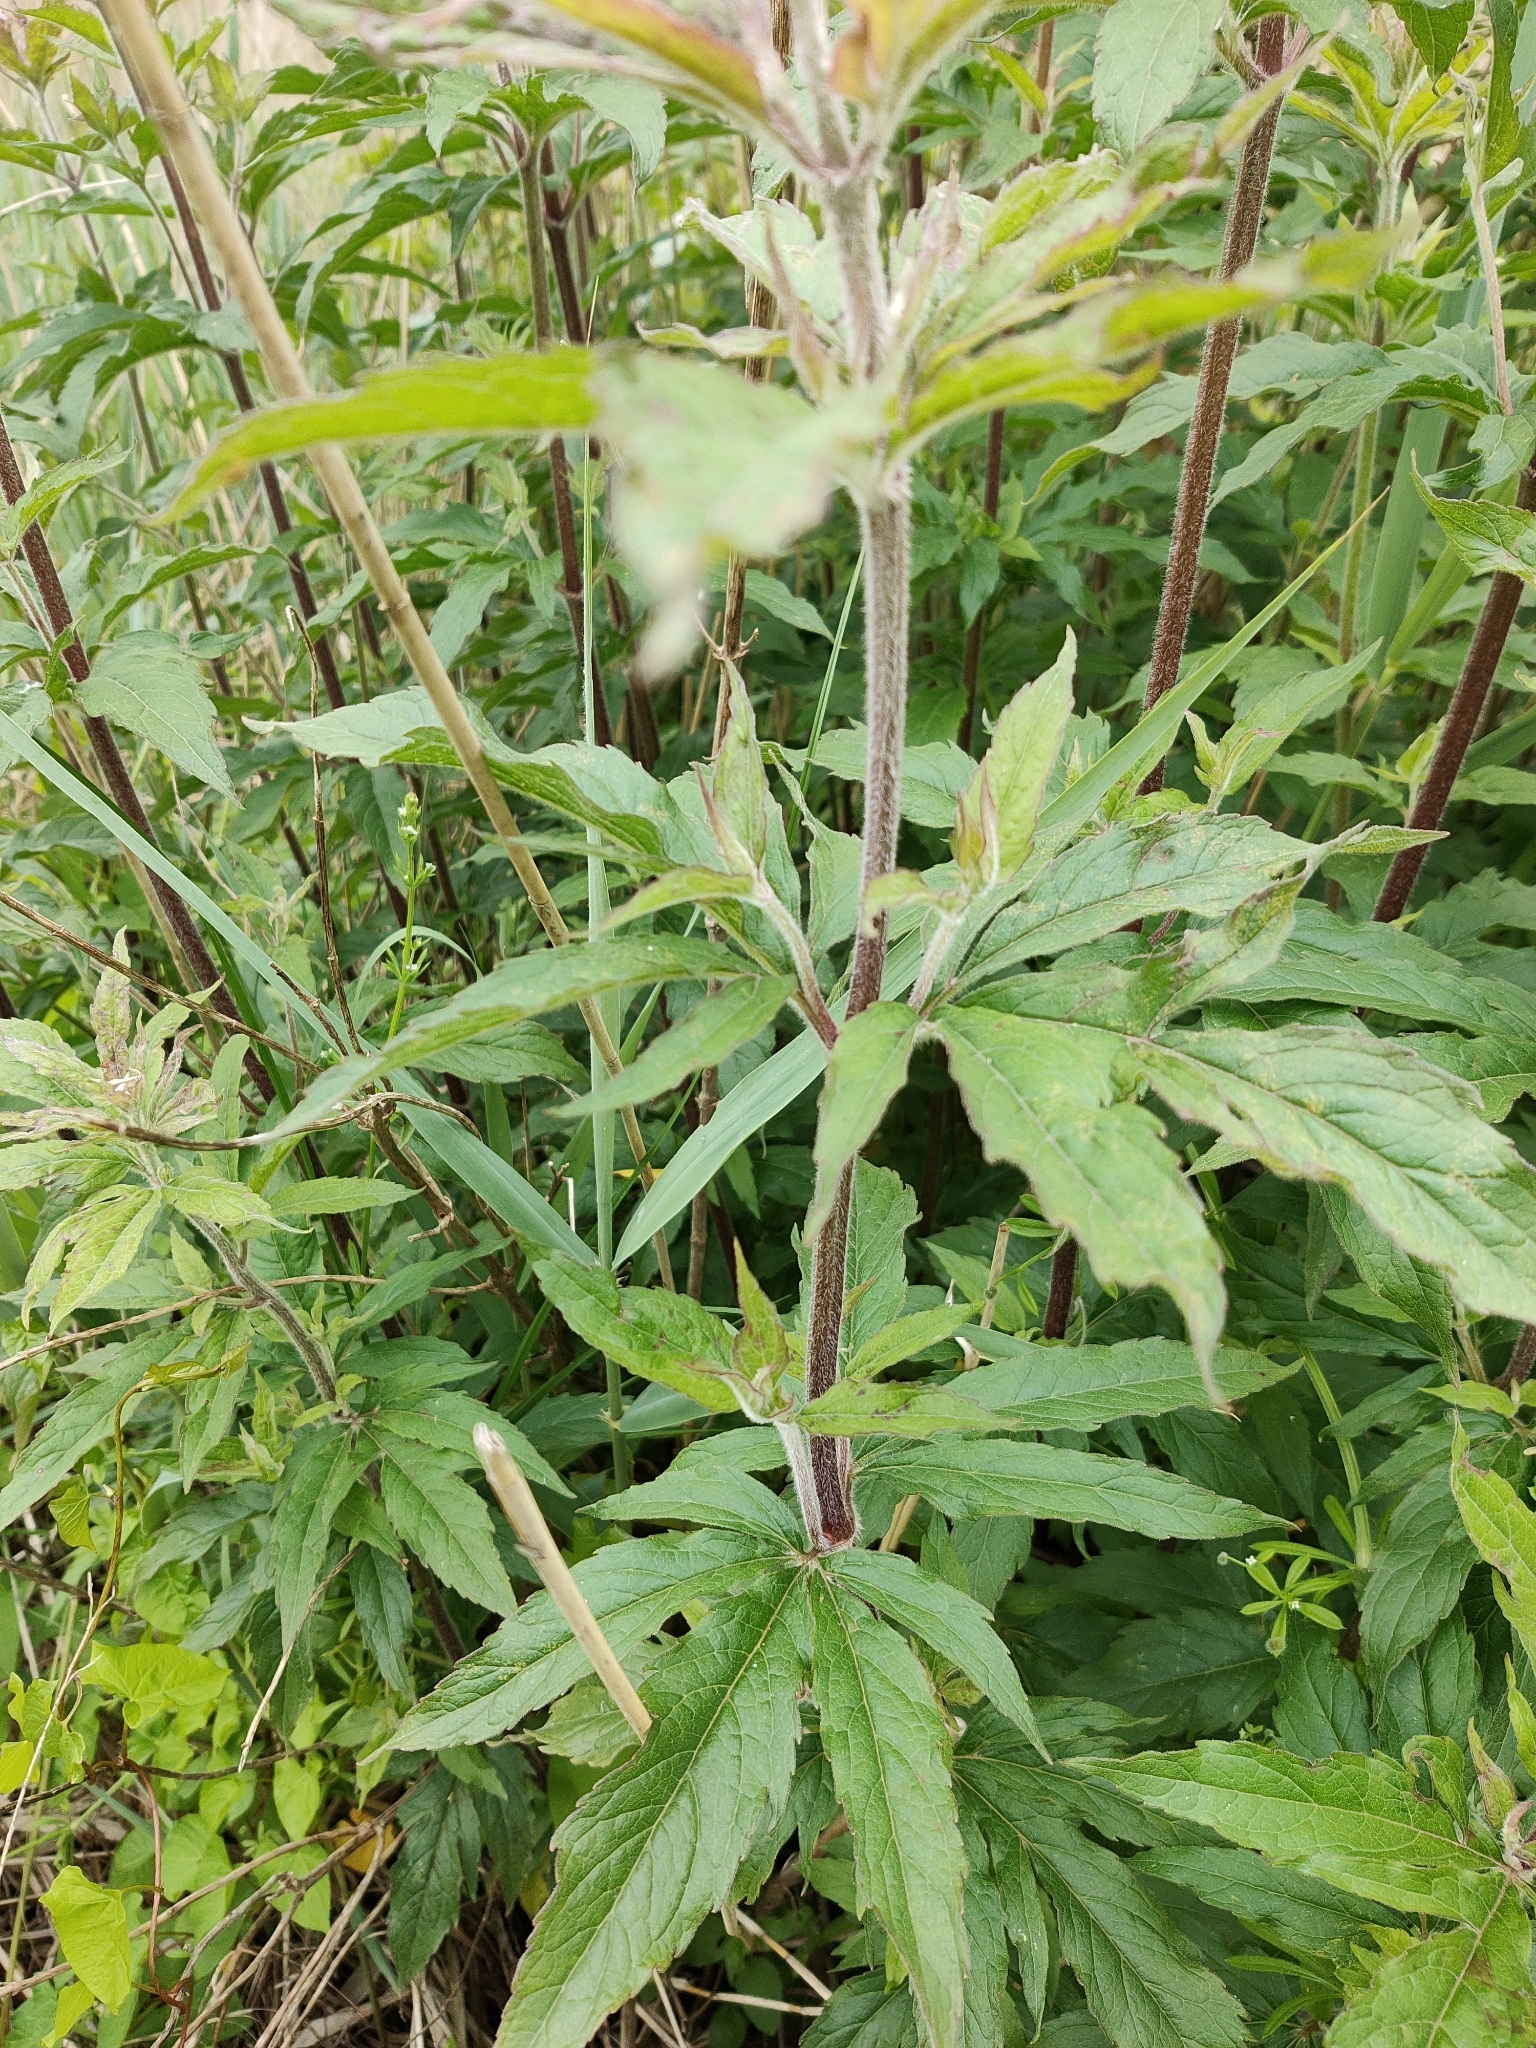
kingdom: Plantae
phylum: Tracheophyta
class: Magnoliopsida
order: Asterales
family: Asteraceae
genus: Eupatorium
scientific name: Eupatorium cannabinum
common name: Hemp-agrimony
